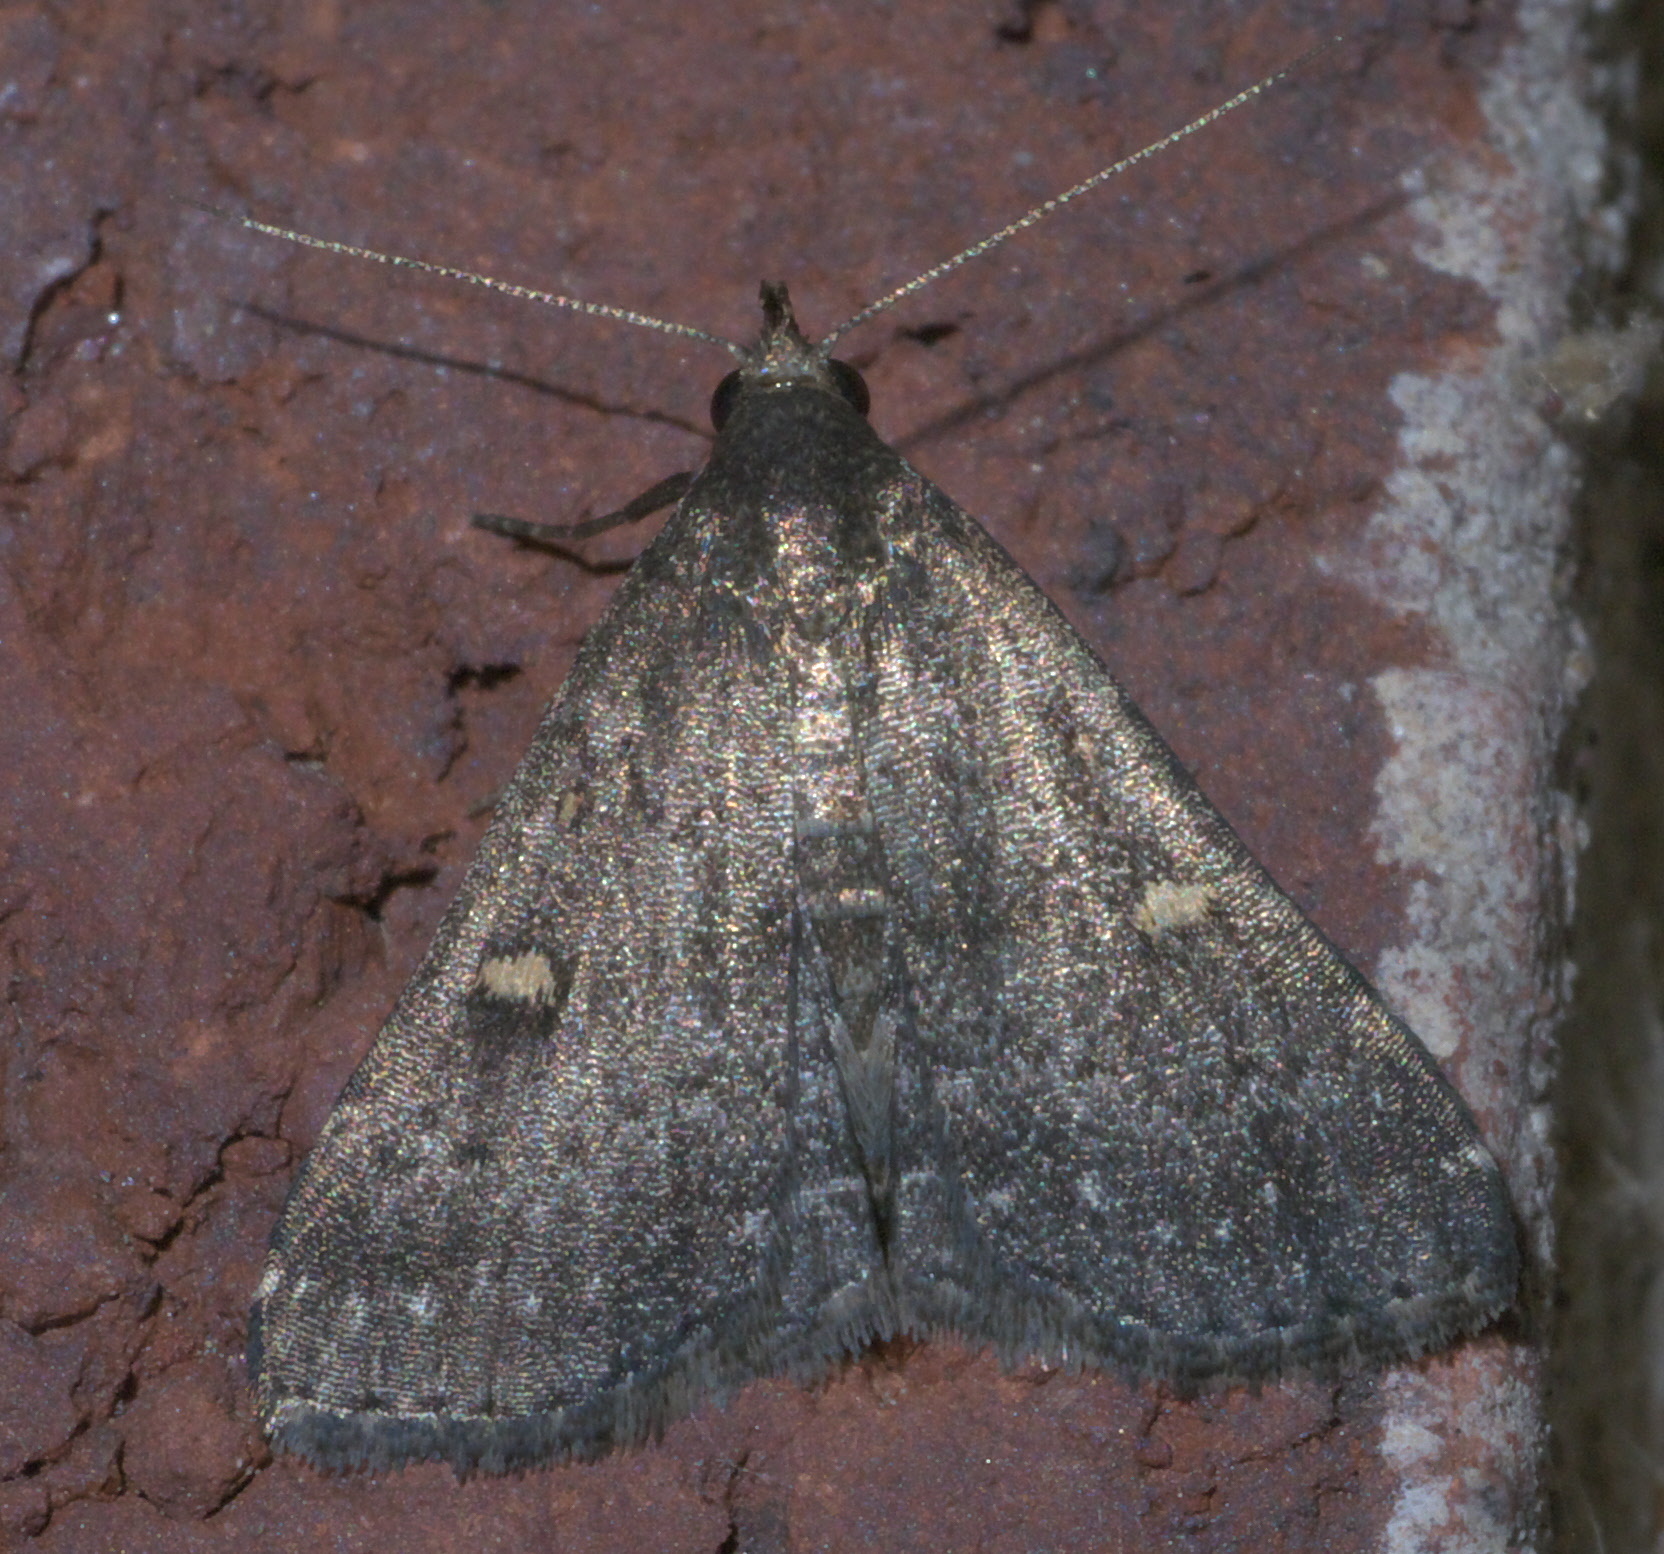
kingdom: Animalia
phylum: Arthropoda
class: Insecta
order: Lepidoptera
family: Erebidae
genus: Tetanolita
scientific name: Tetanolita mynesalis
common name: Smoky tetanolita moth
